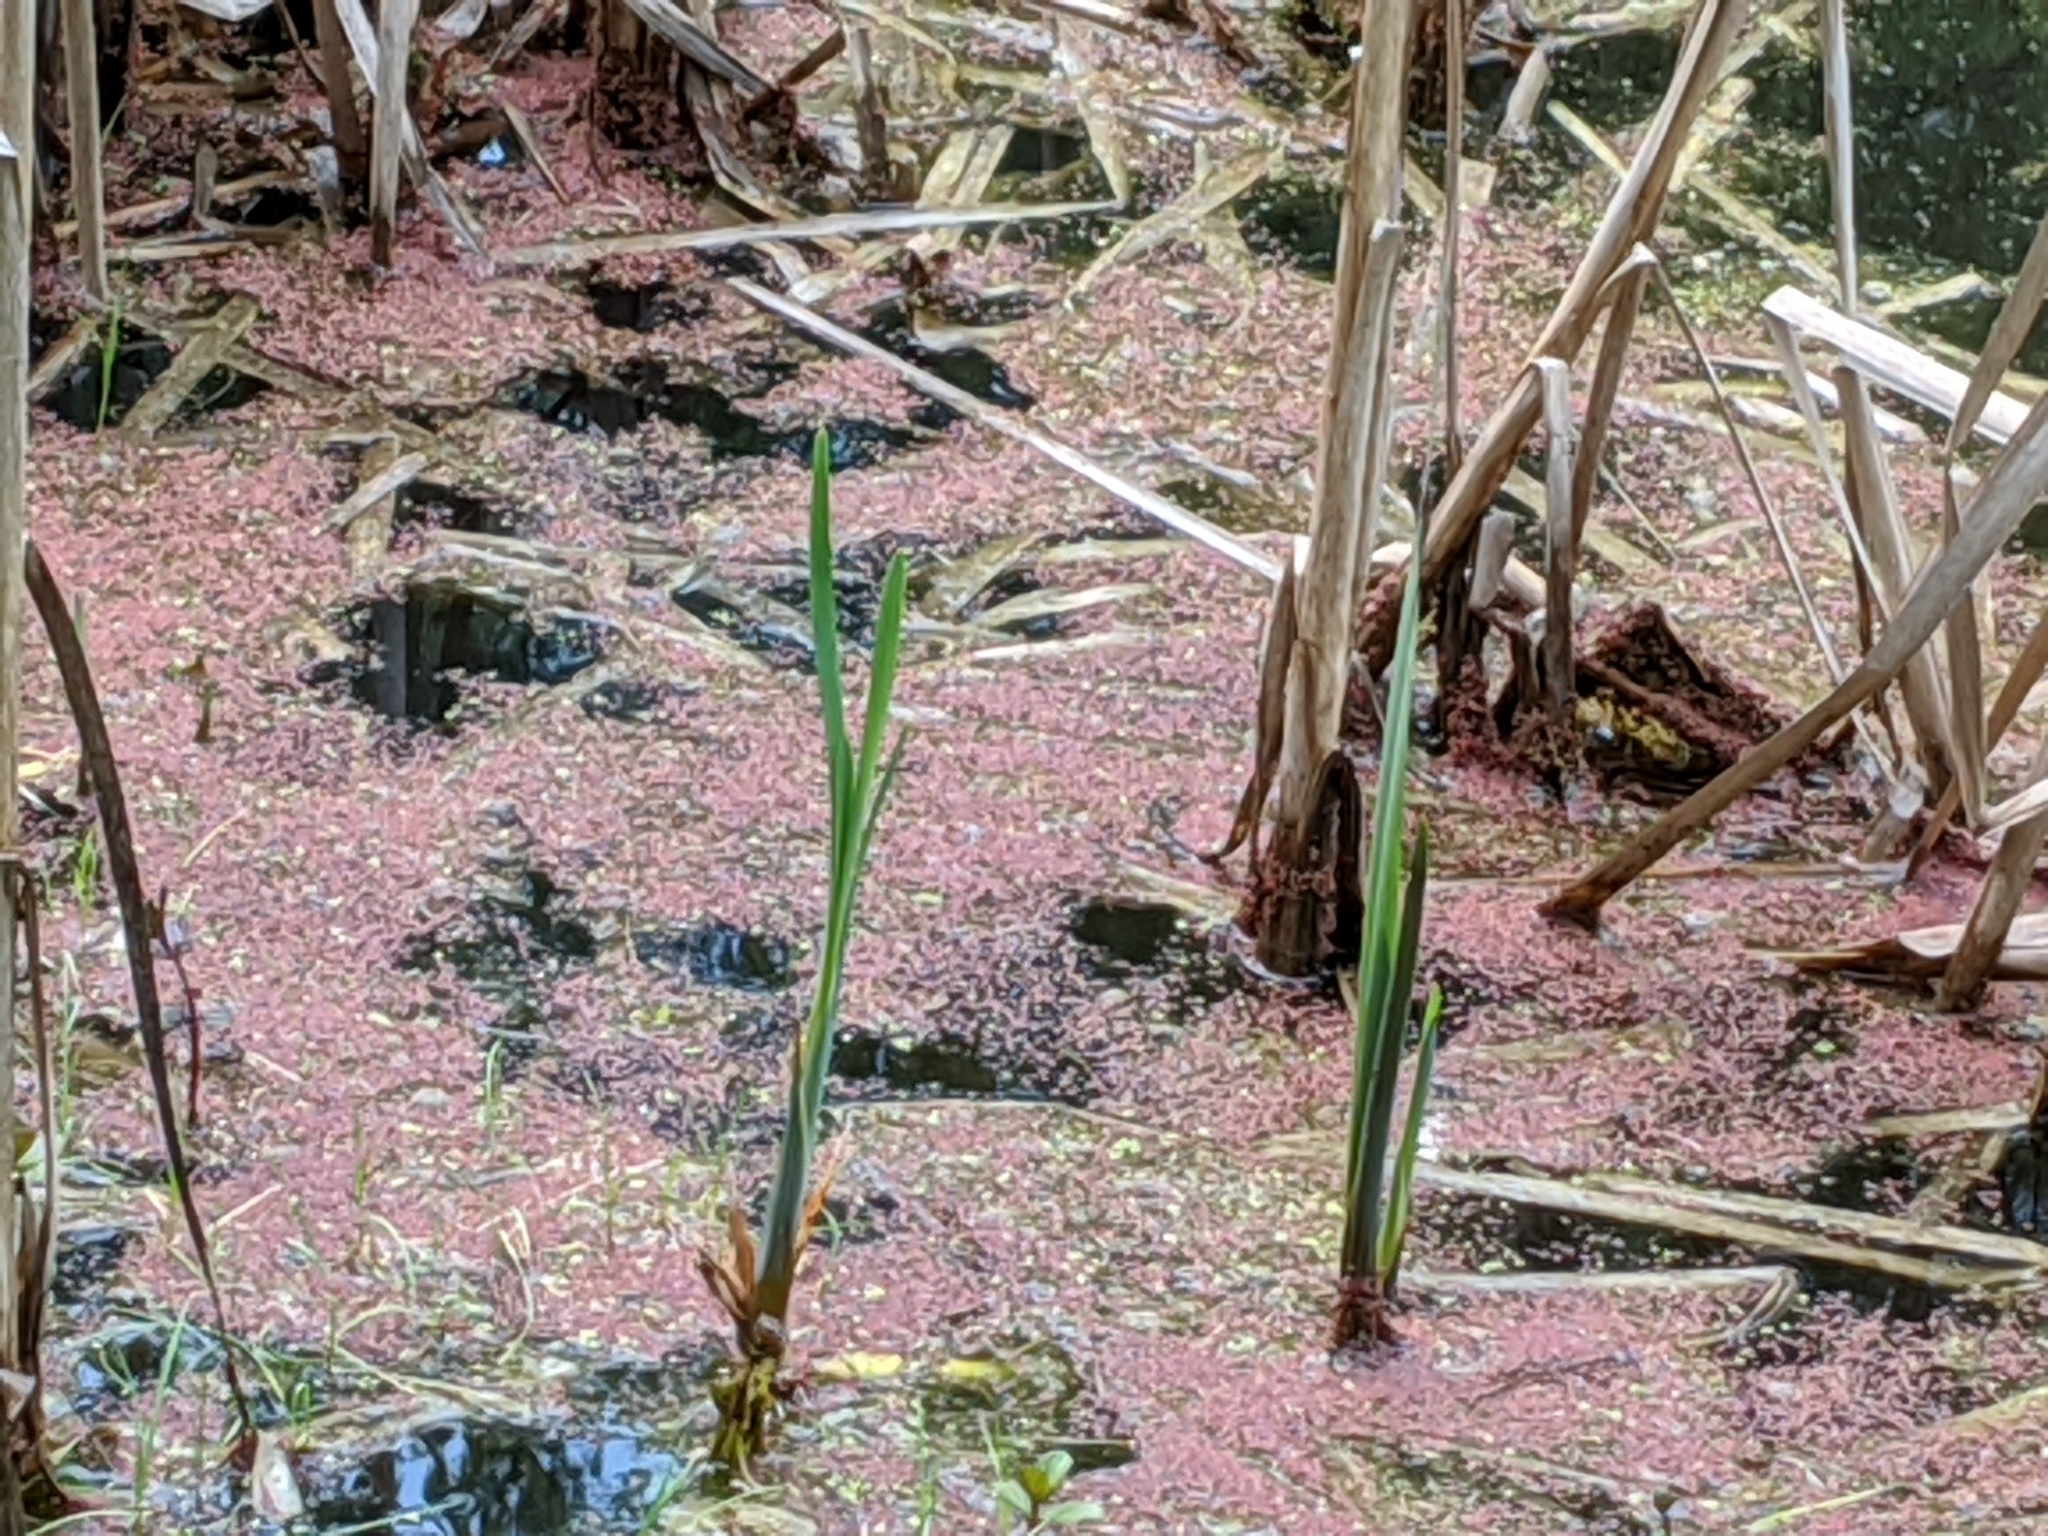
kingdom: Plantae
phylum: Tracheophyta
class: Liliopsida
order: Poales
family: Typhaceae
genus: Typha
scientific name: Typha latifolia
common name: Broadleaf cattail
